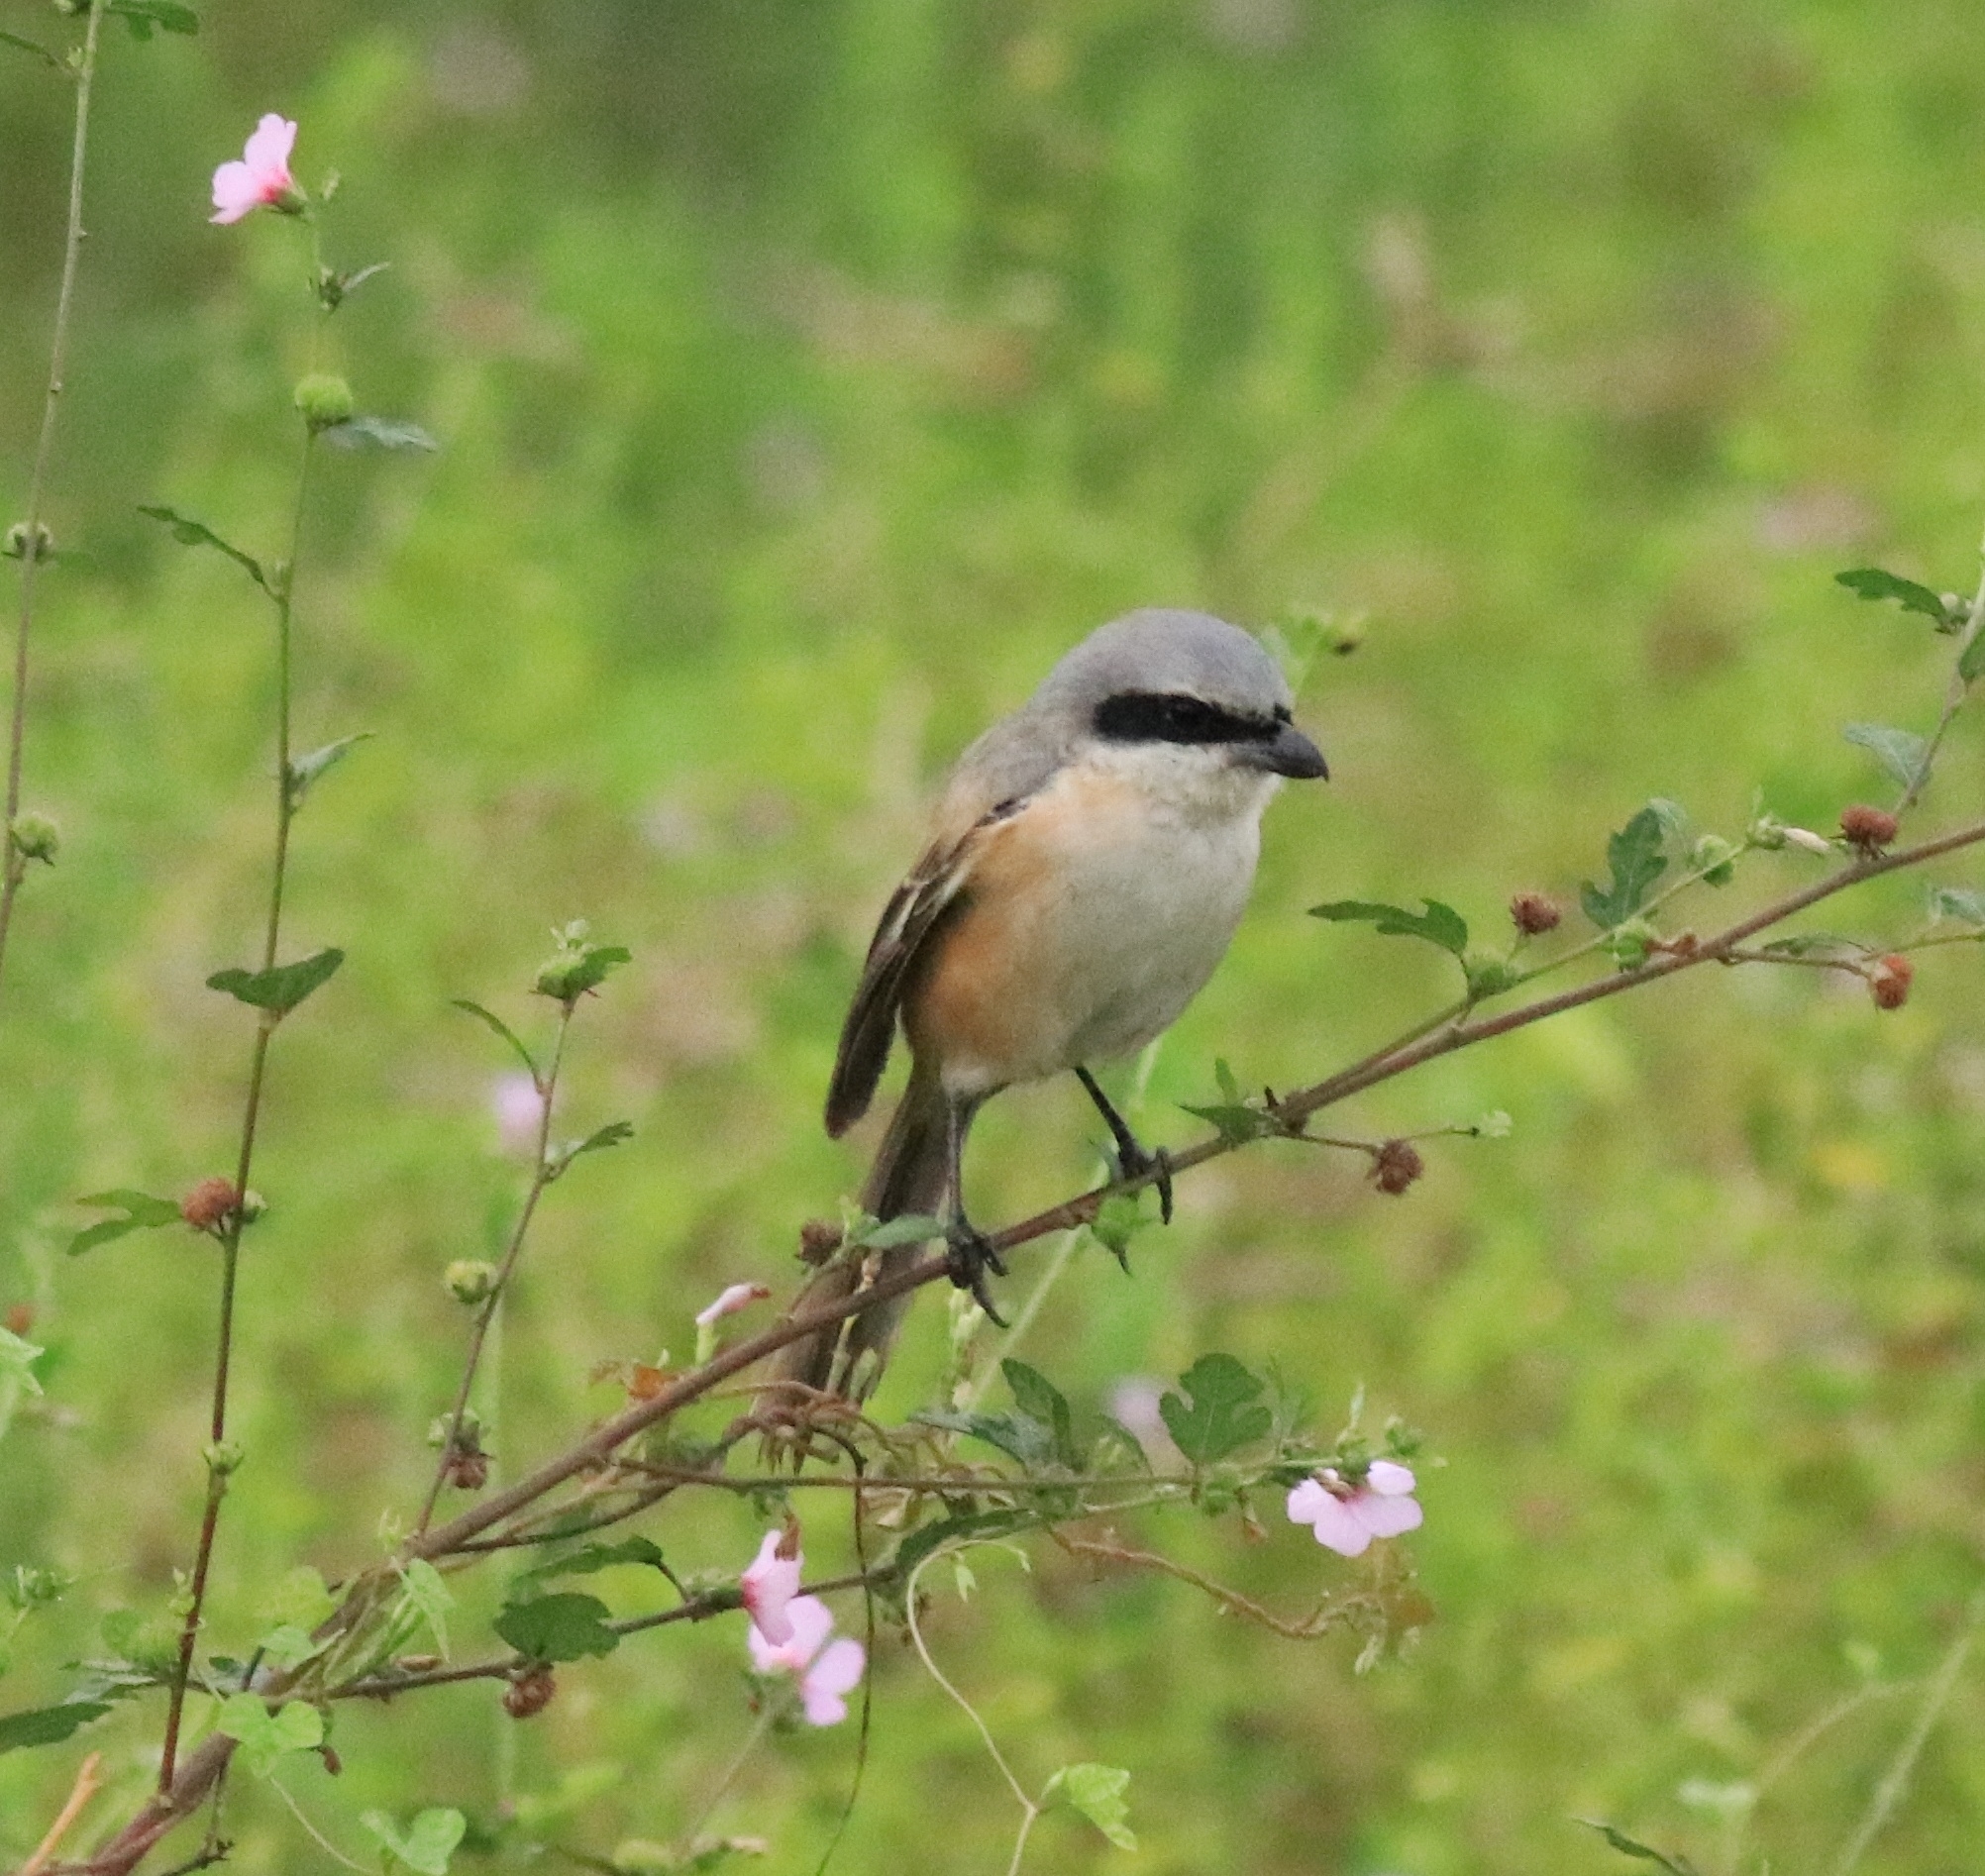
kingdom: Animalia
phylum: Chordata
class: Aves
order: Passeriformes
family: Laniidae
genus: Lanius
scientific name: Lanius schach
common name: Long-tailed shrike
